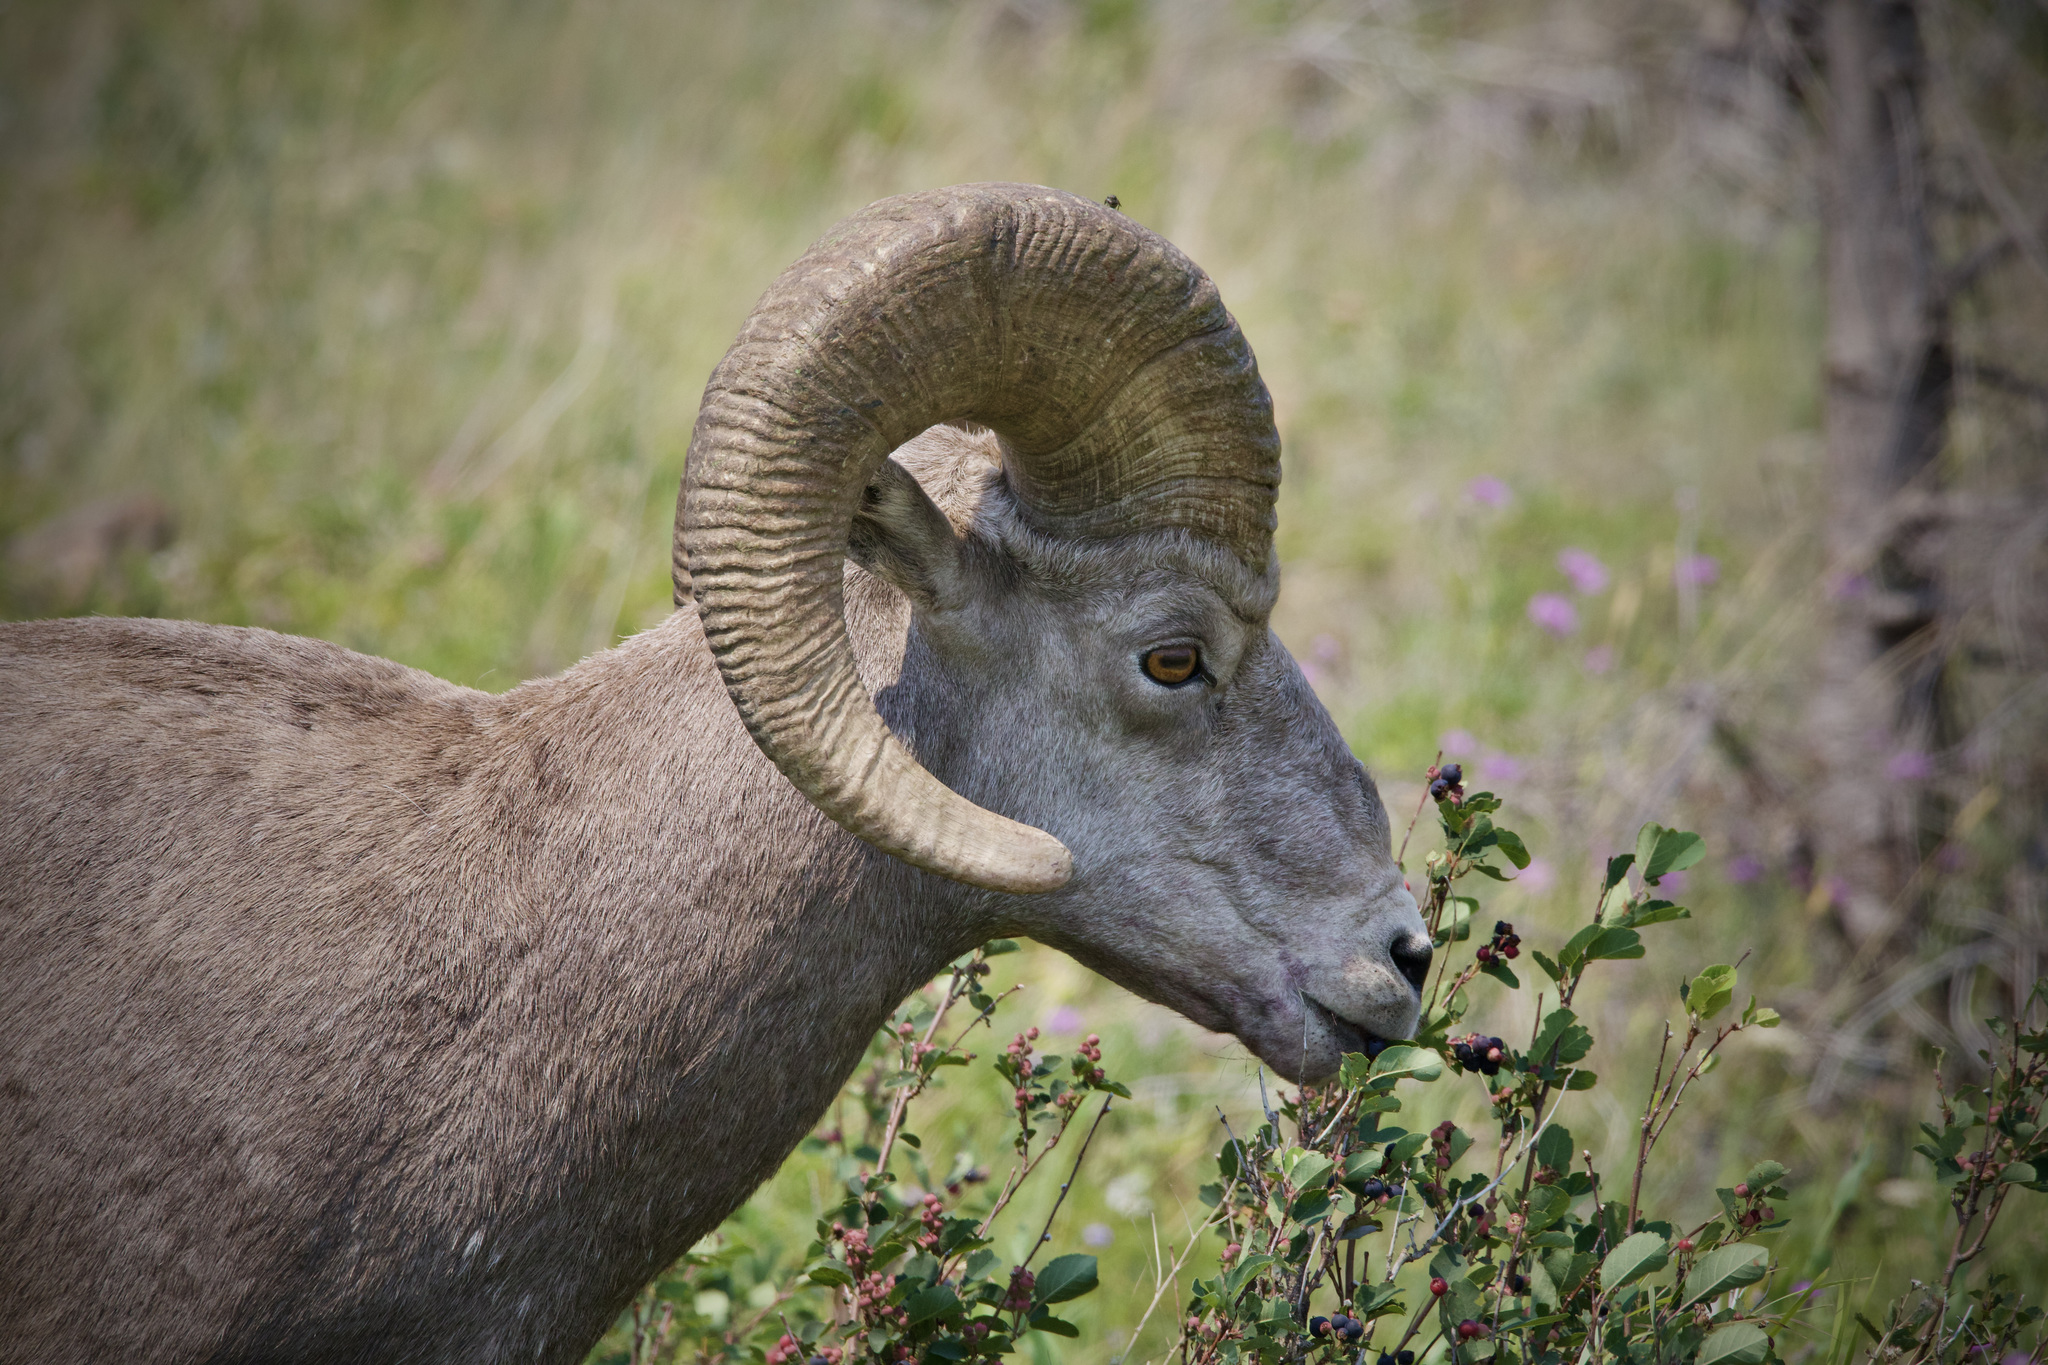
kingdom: Animalia
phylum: Chordata
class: Mammalia
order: Artiodactyla
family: Bovidae
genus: Ovis
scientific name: Ovis canadensis
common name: Bighorn sheep
